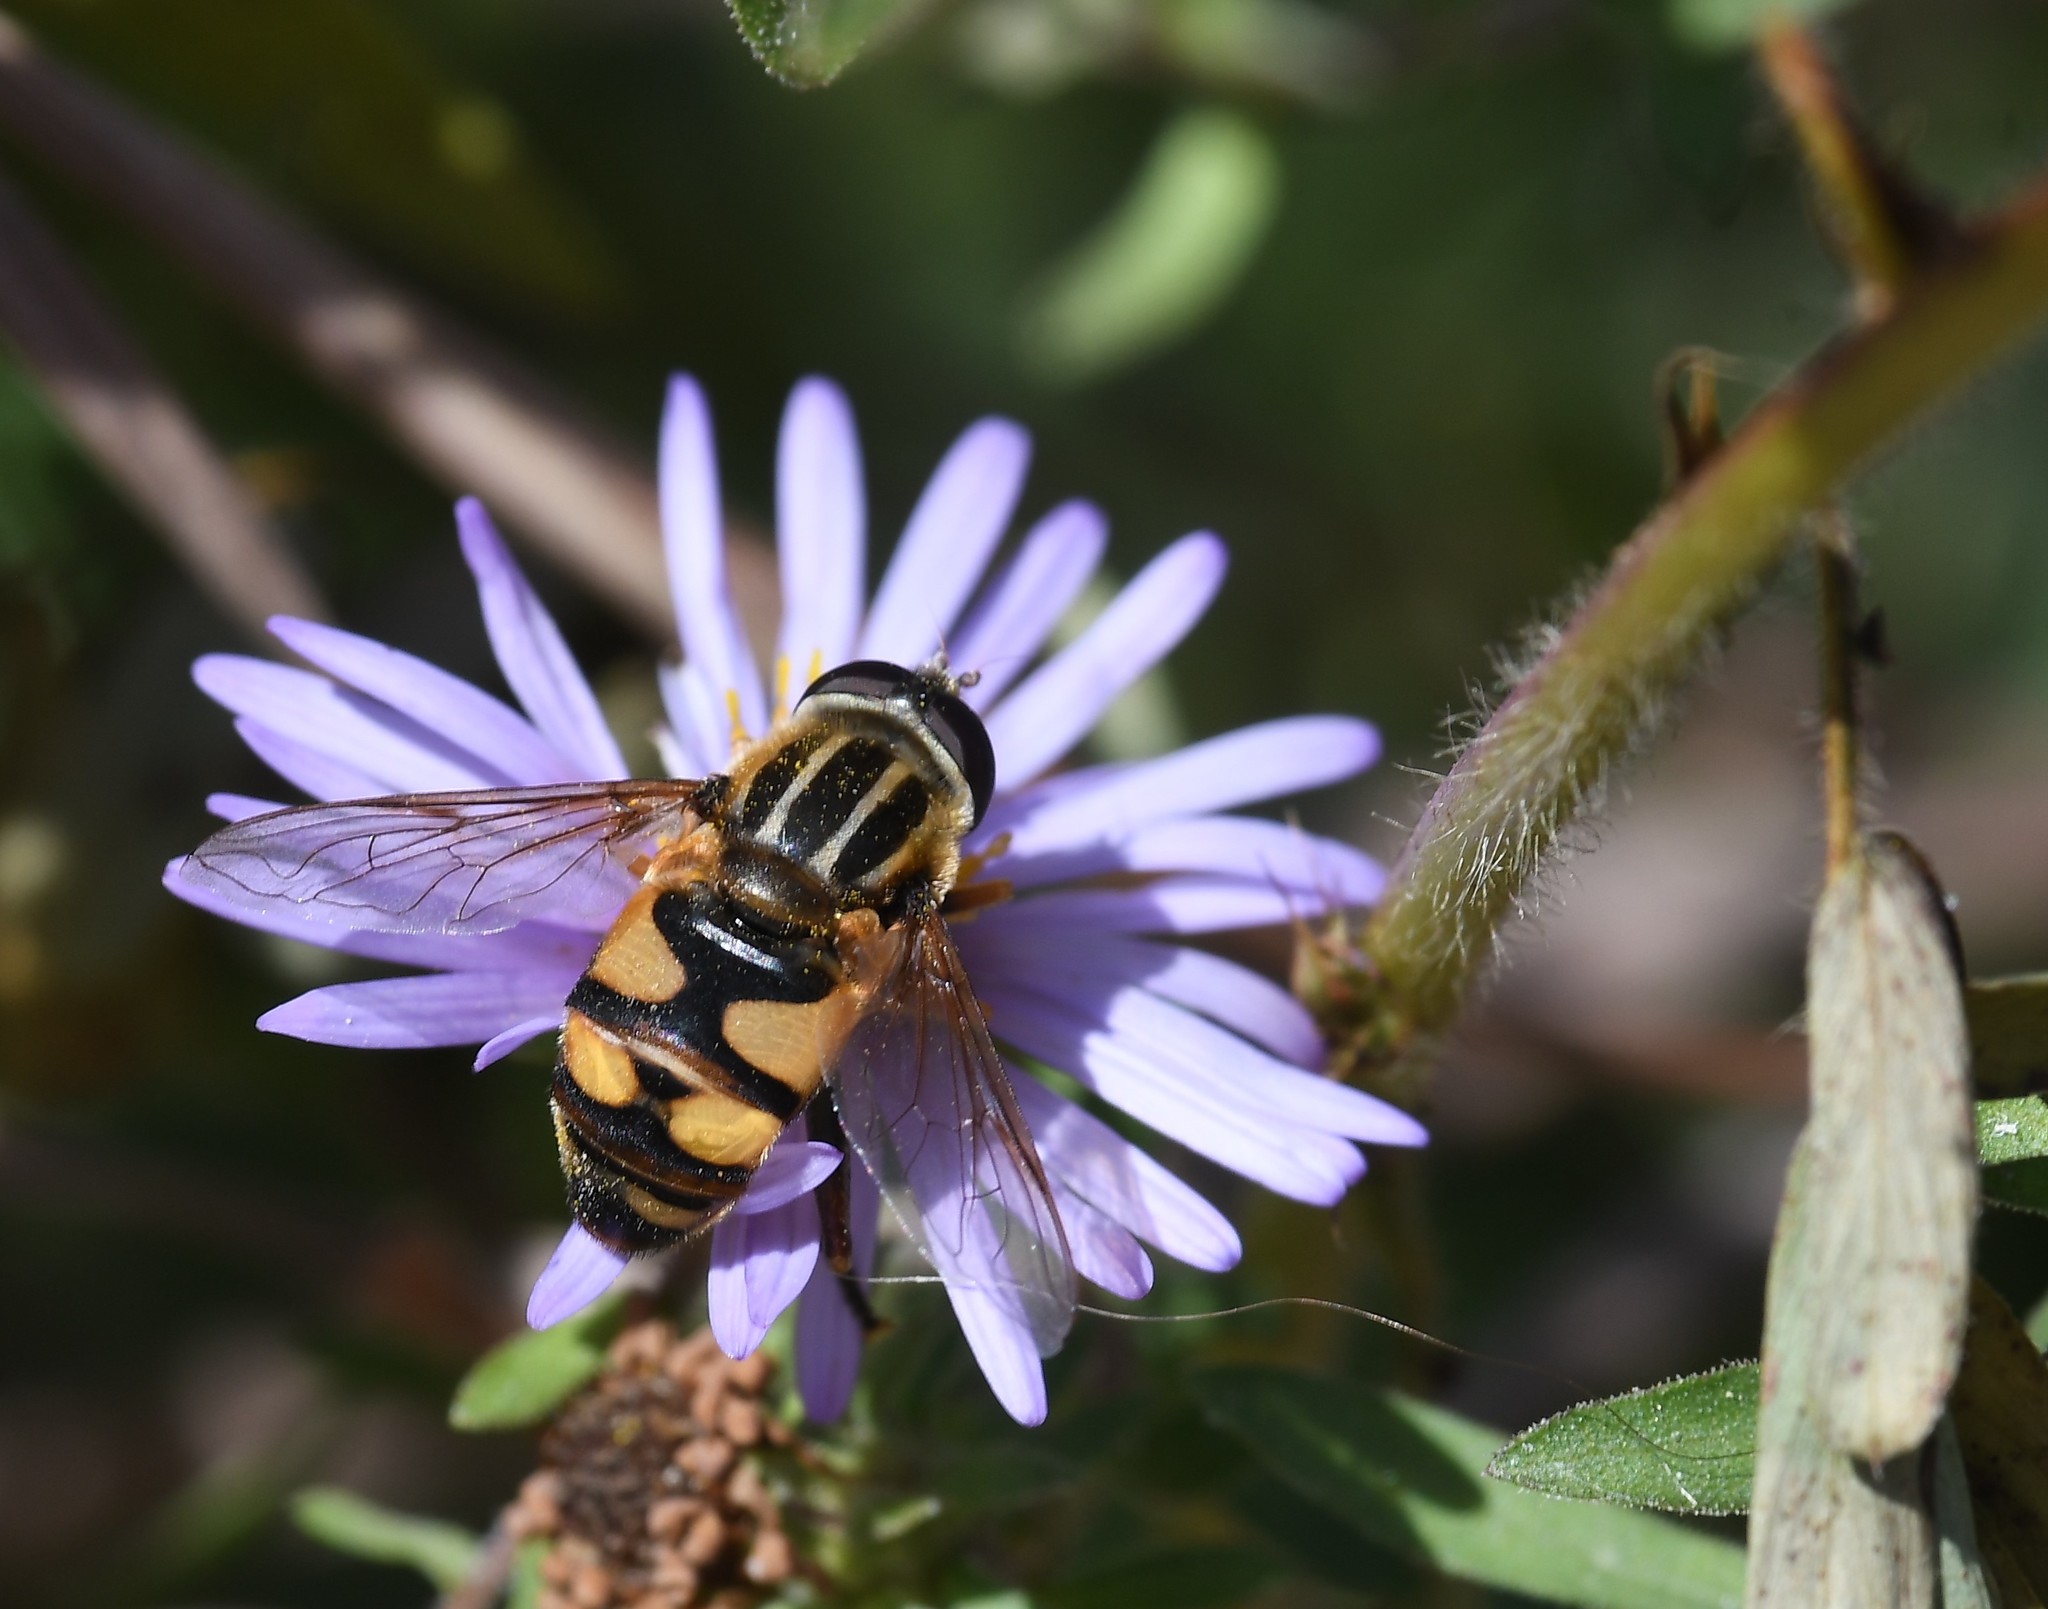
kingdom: Animalia
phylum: Arthropoda
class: Insecta
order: Diptera
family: Syrphidae
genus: Helophilus
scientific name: Helophilus fasciatus
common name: Narrow-headed marsh fly
